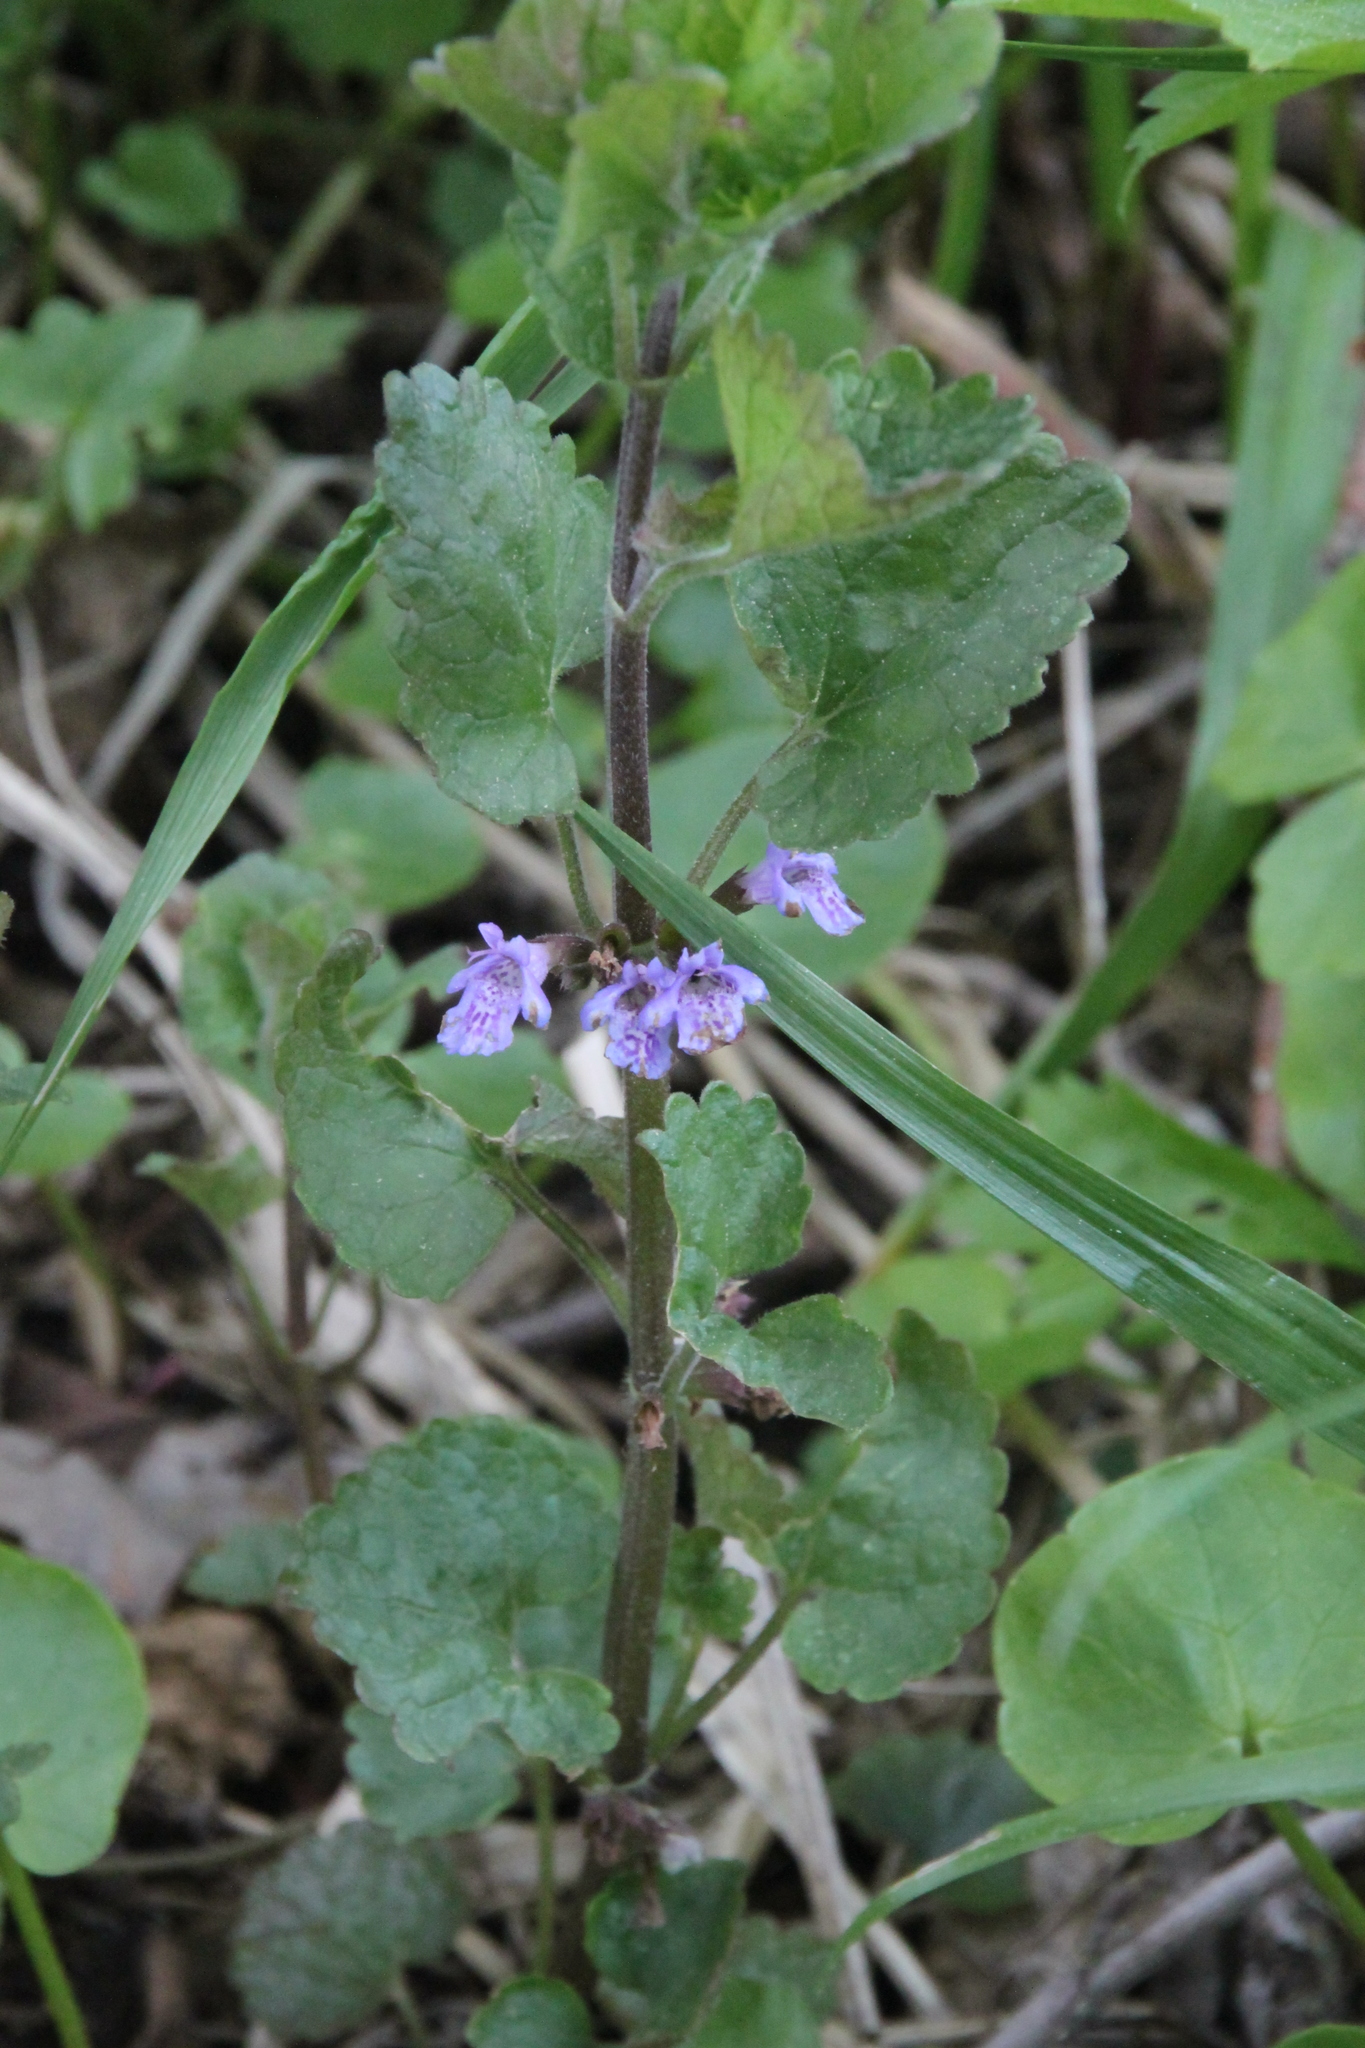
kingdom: Plantae
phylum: Tracheophyta
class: Magnoliopsida
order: Lamiales
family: Lamiaceae
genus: Glechoma
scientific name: Glechoma hederacea
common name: Ground ivy
